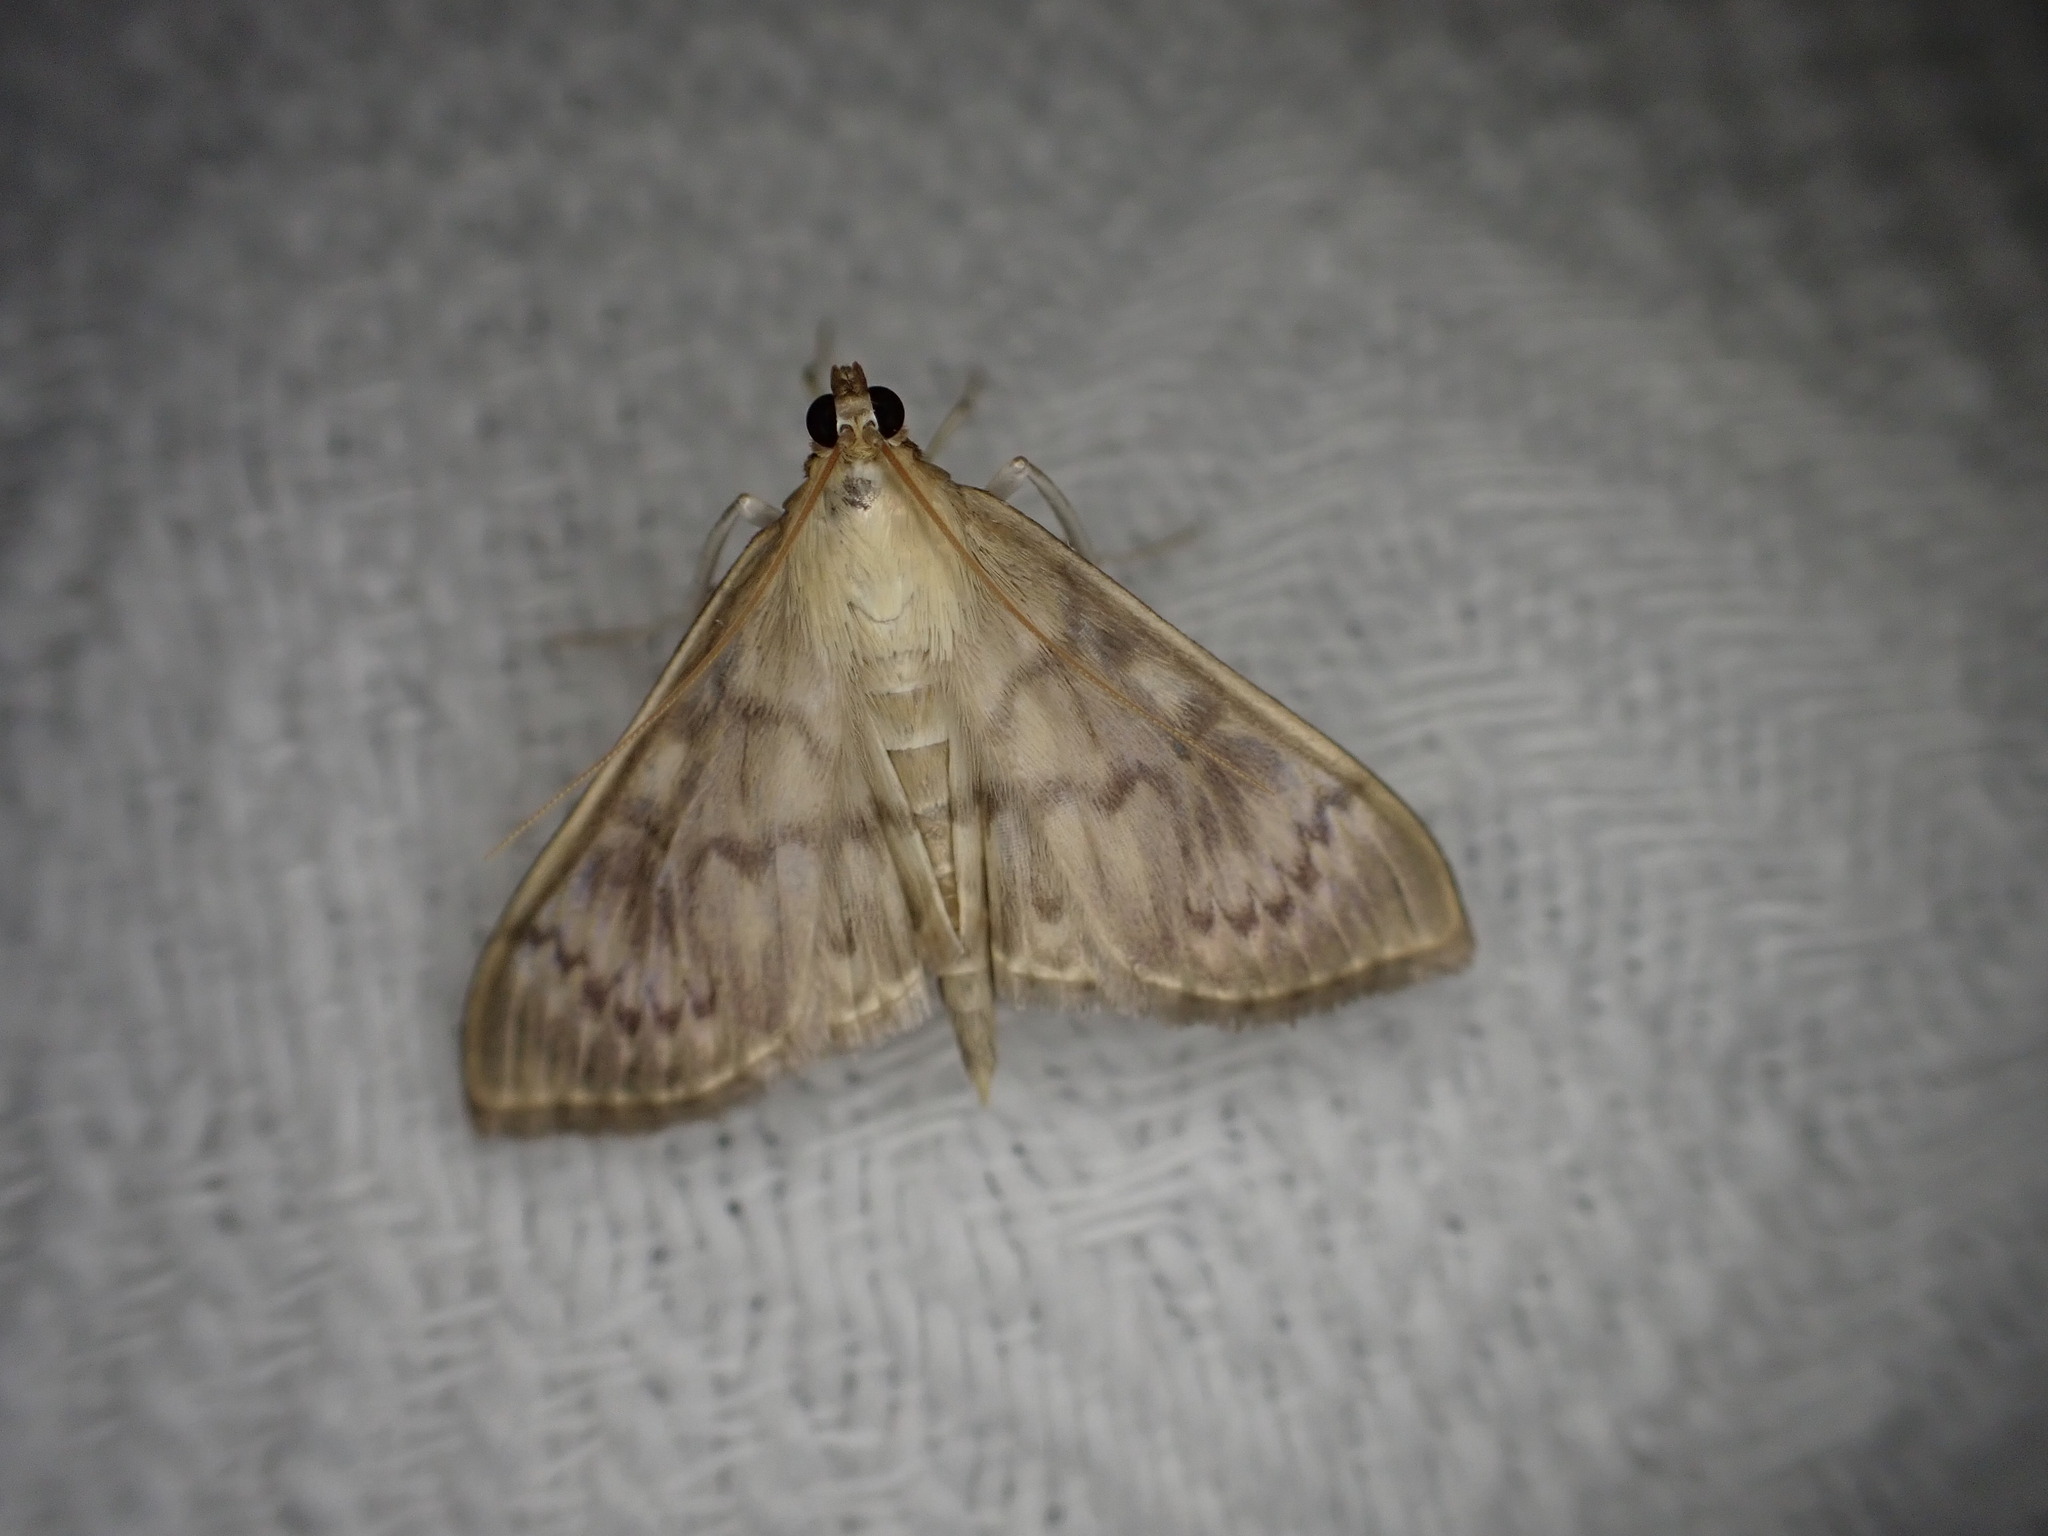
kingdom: Animalia
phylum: Arthropoda
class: Insecta
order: Lepidoptera
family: Crambidae
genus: Patania
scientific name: Patania ruralis
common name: Mother of pearl
